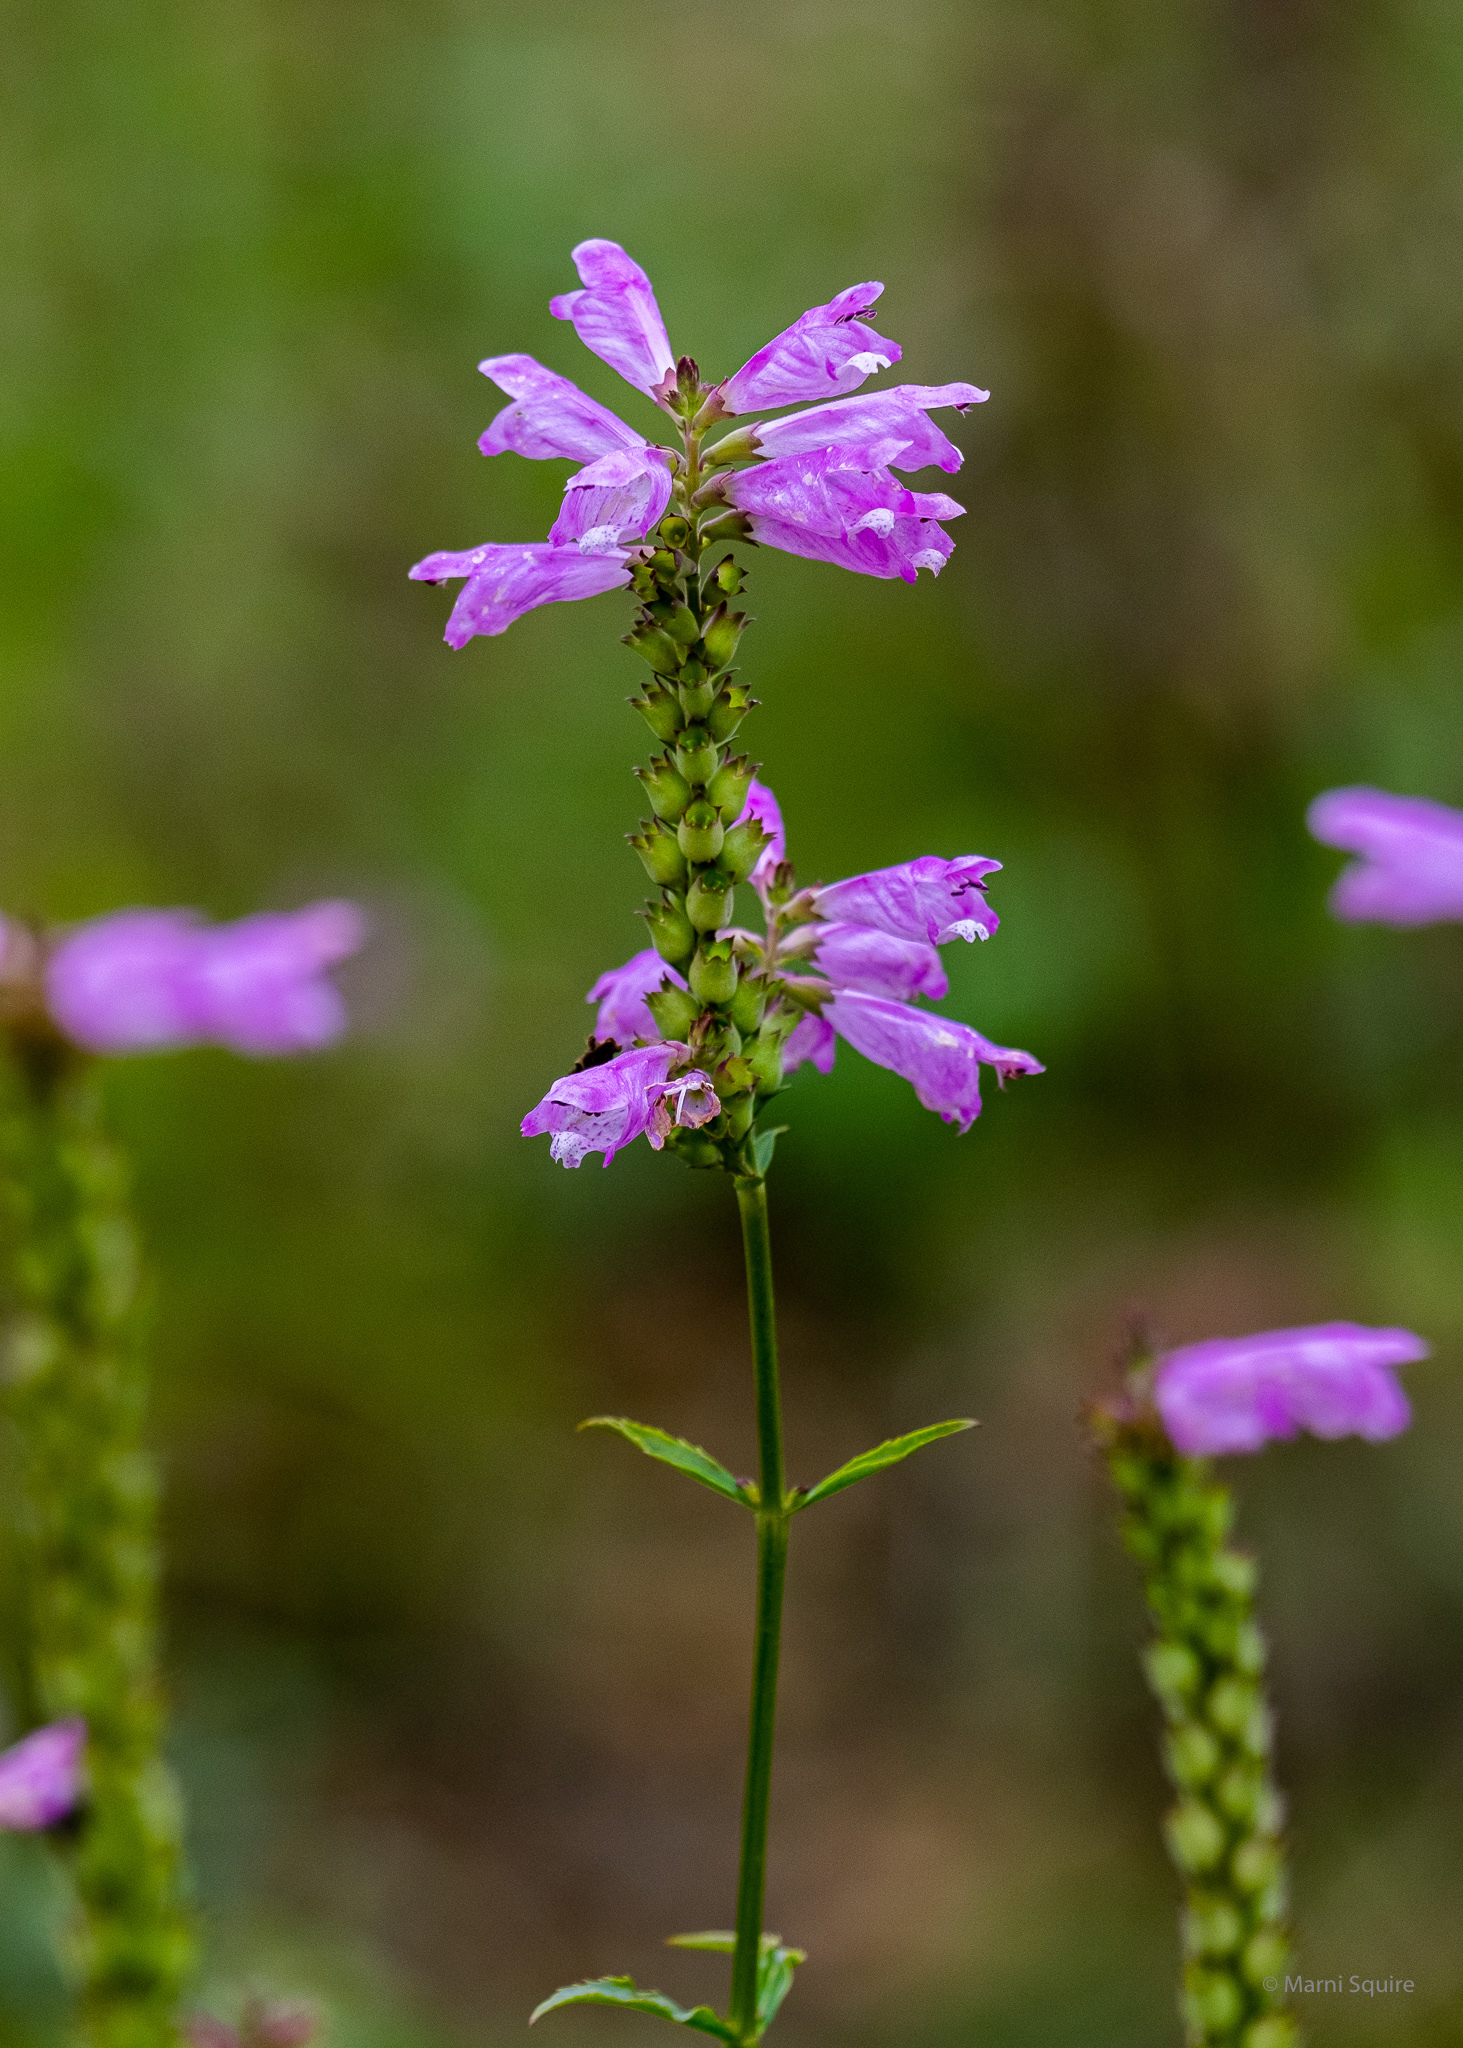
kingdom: Plantae
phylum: Tracheophyta
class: Magnoliopsida
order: Lamiales
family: Lamiaceae
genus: Physostegia
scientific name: Physostegia virginiana
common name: Obedient-plant
